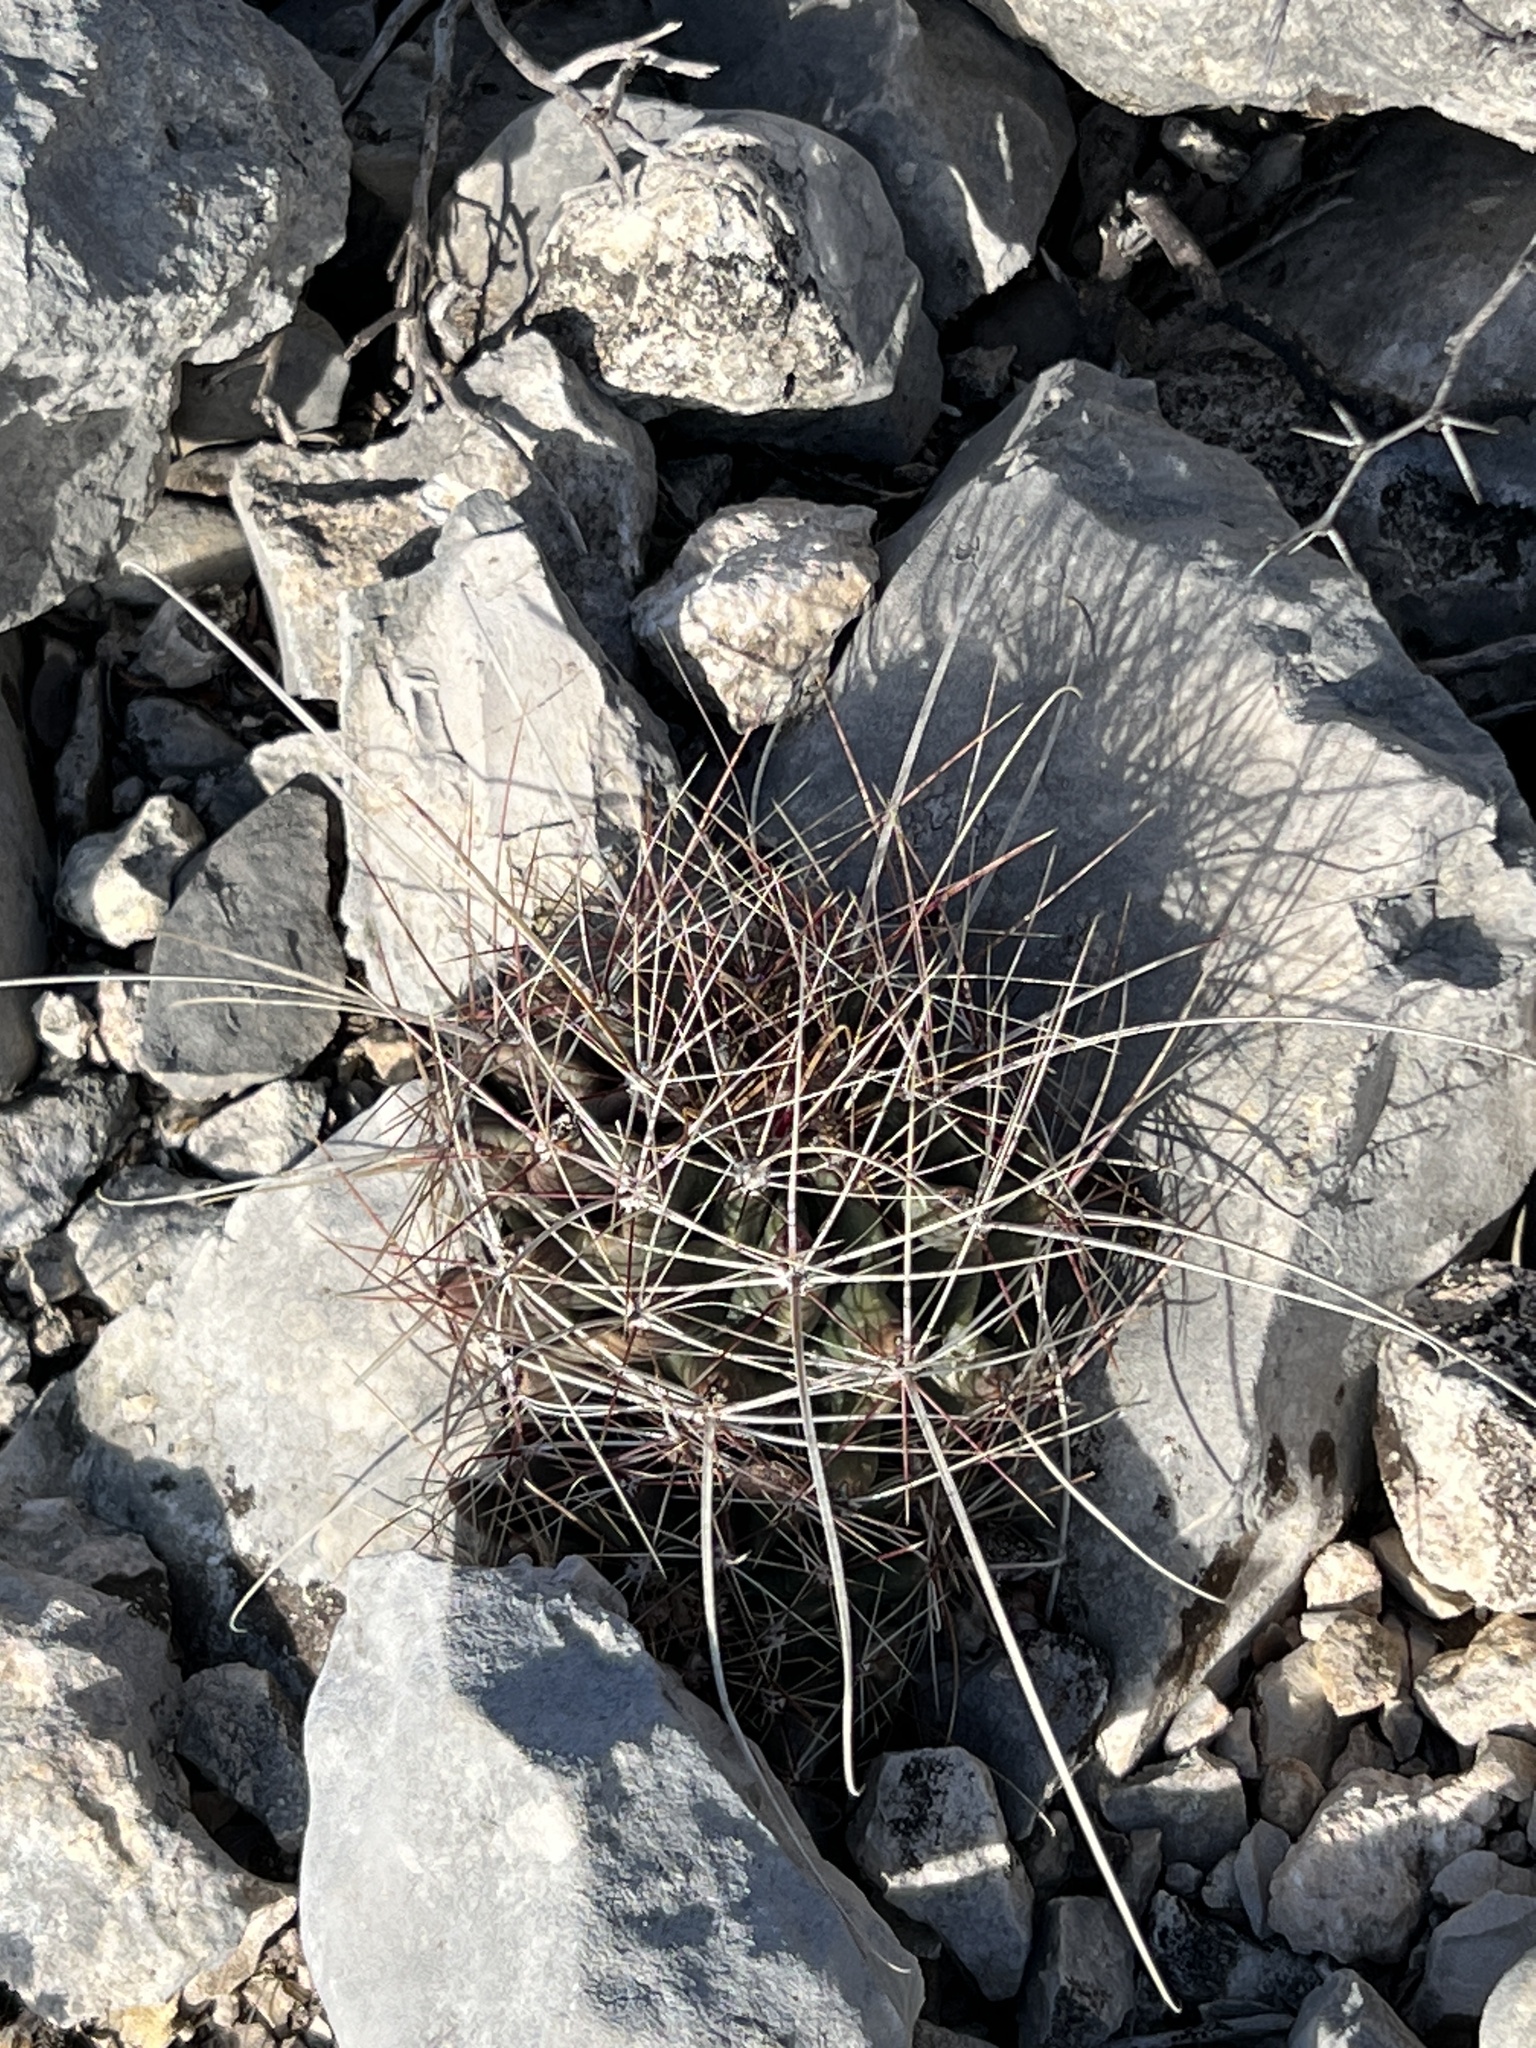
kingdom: Plantae
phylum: Tracheophyta
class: Magnoliopsida
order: Caryophyllales
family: Cactaceae
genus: Bisnaga
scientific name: Bisnaga hamatacantha
